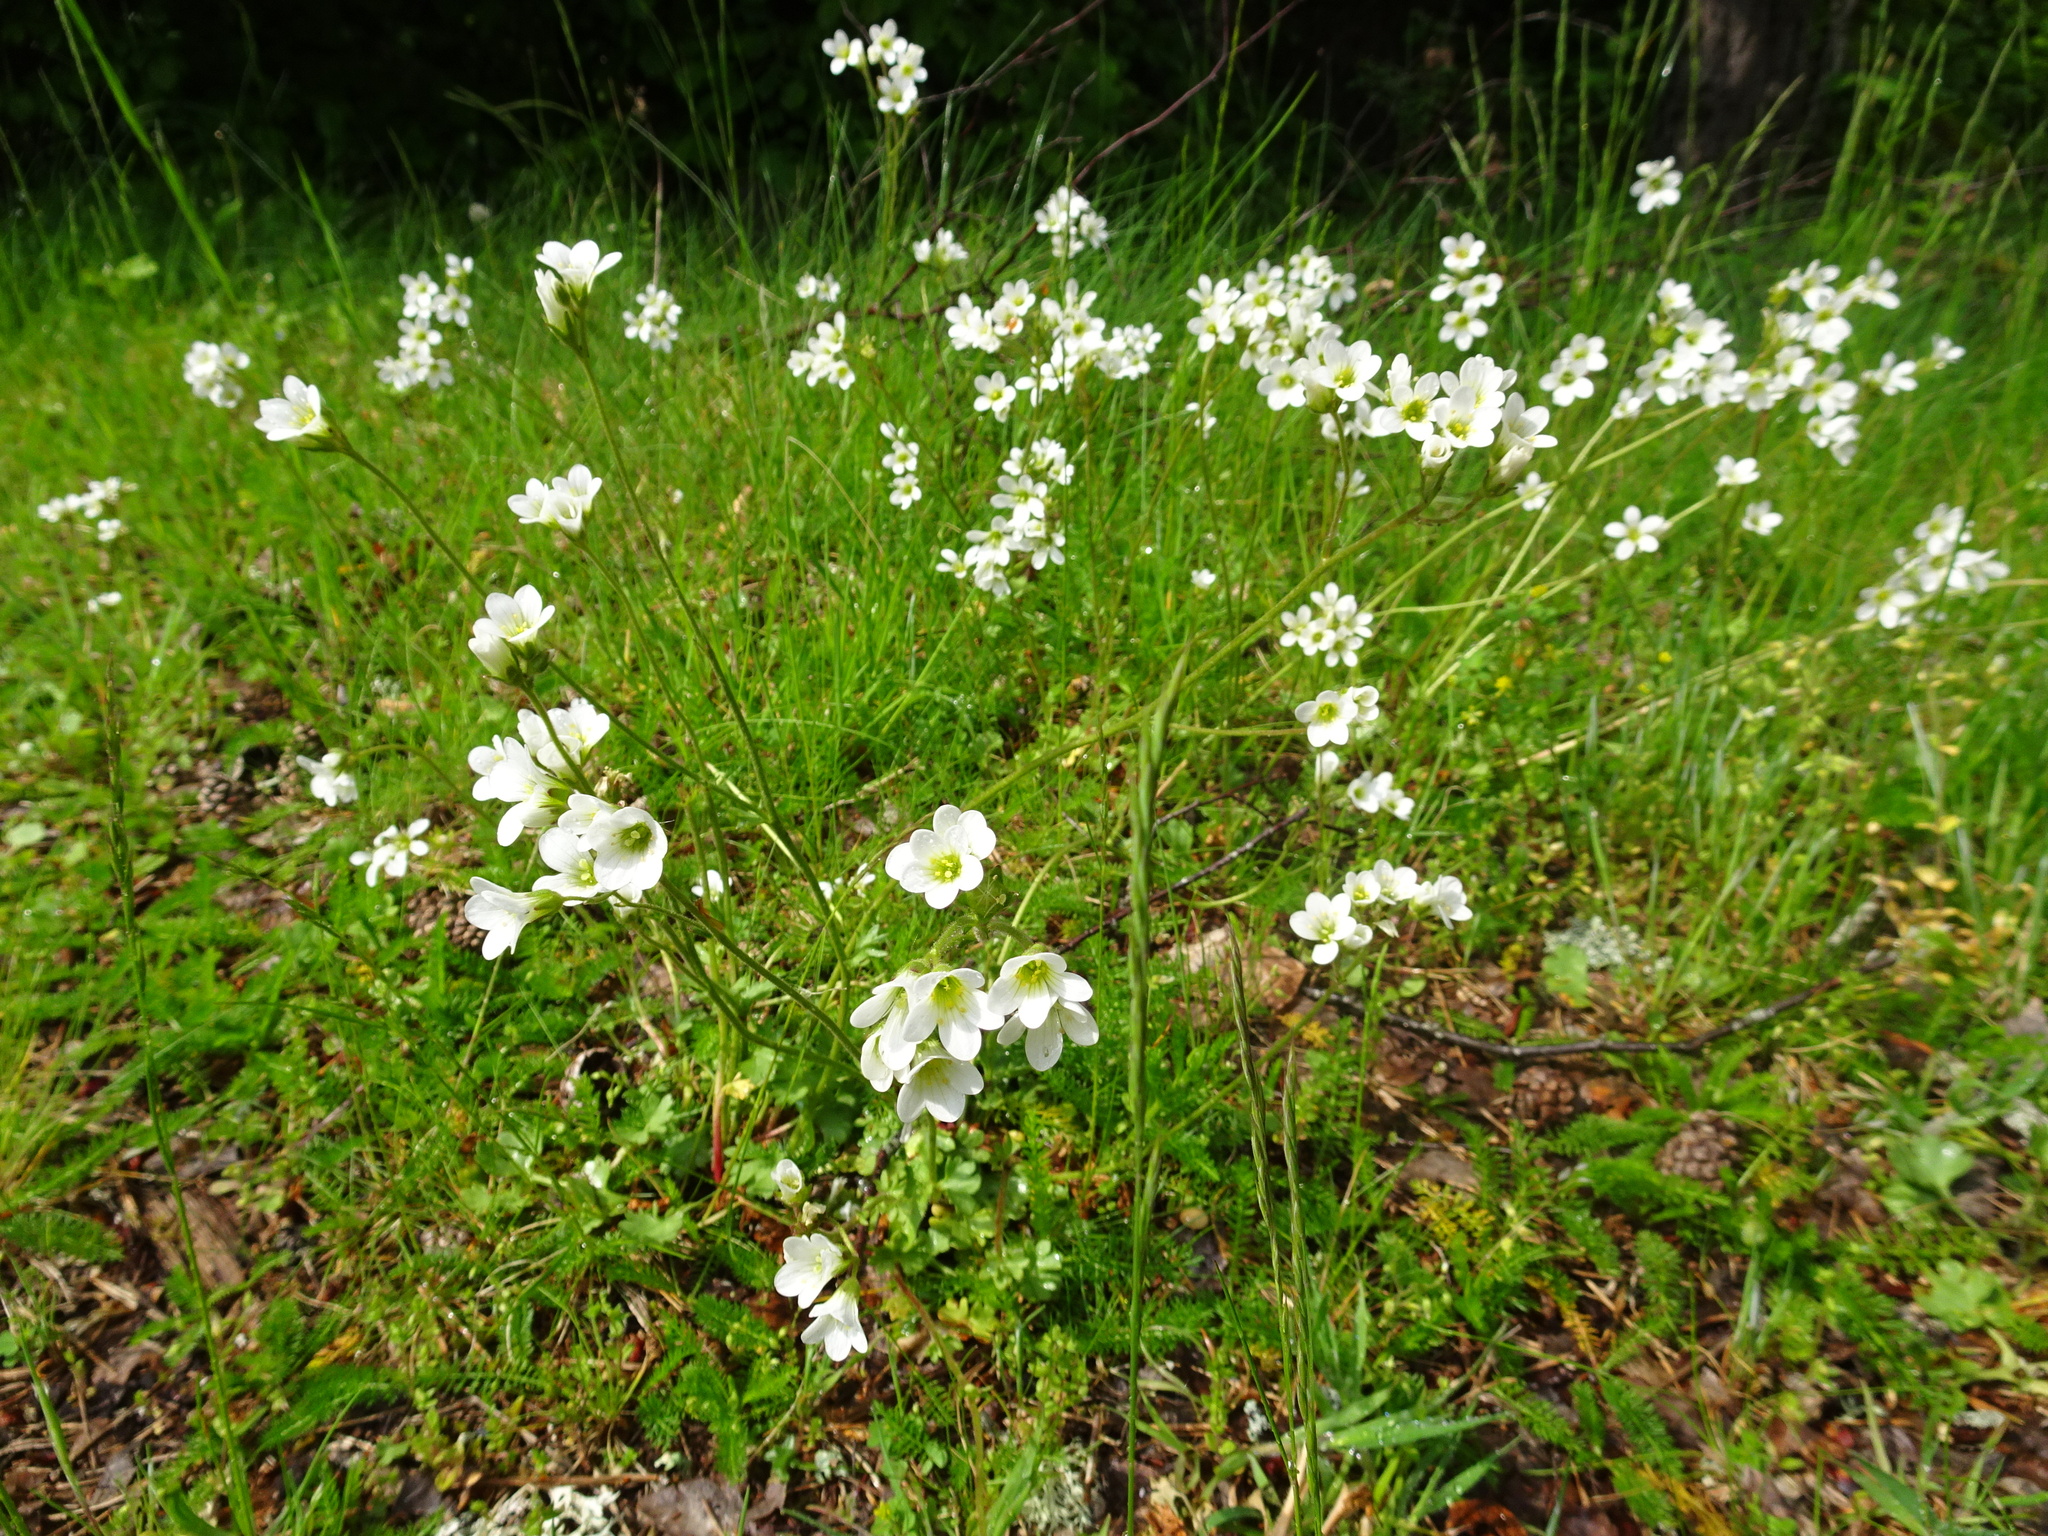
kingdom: Plantae
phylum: Tracheophyta
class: Magnoliopsida
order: Saxifragales
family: Saxifragaceae
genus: Saxifraga
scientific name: Saxifraga granulata
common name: Meadow saxifrage
